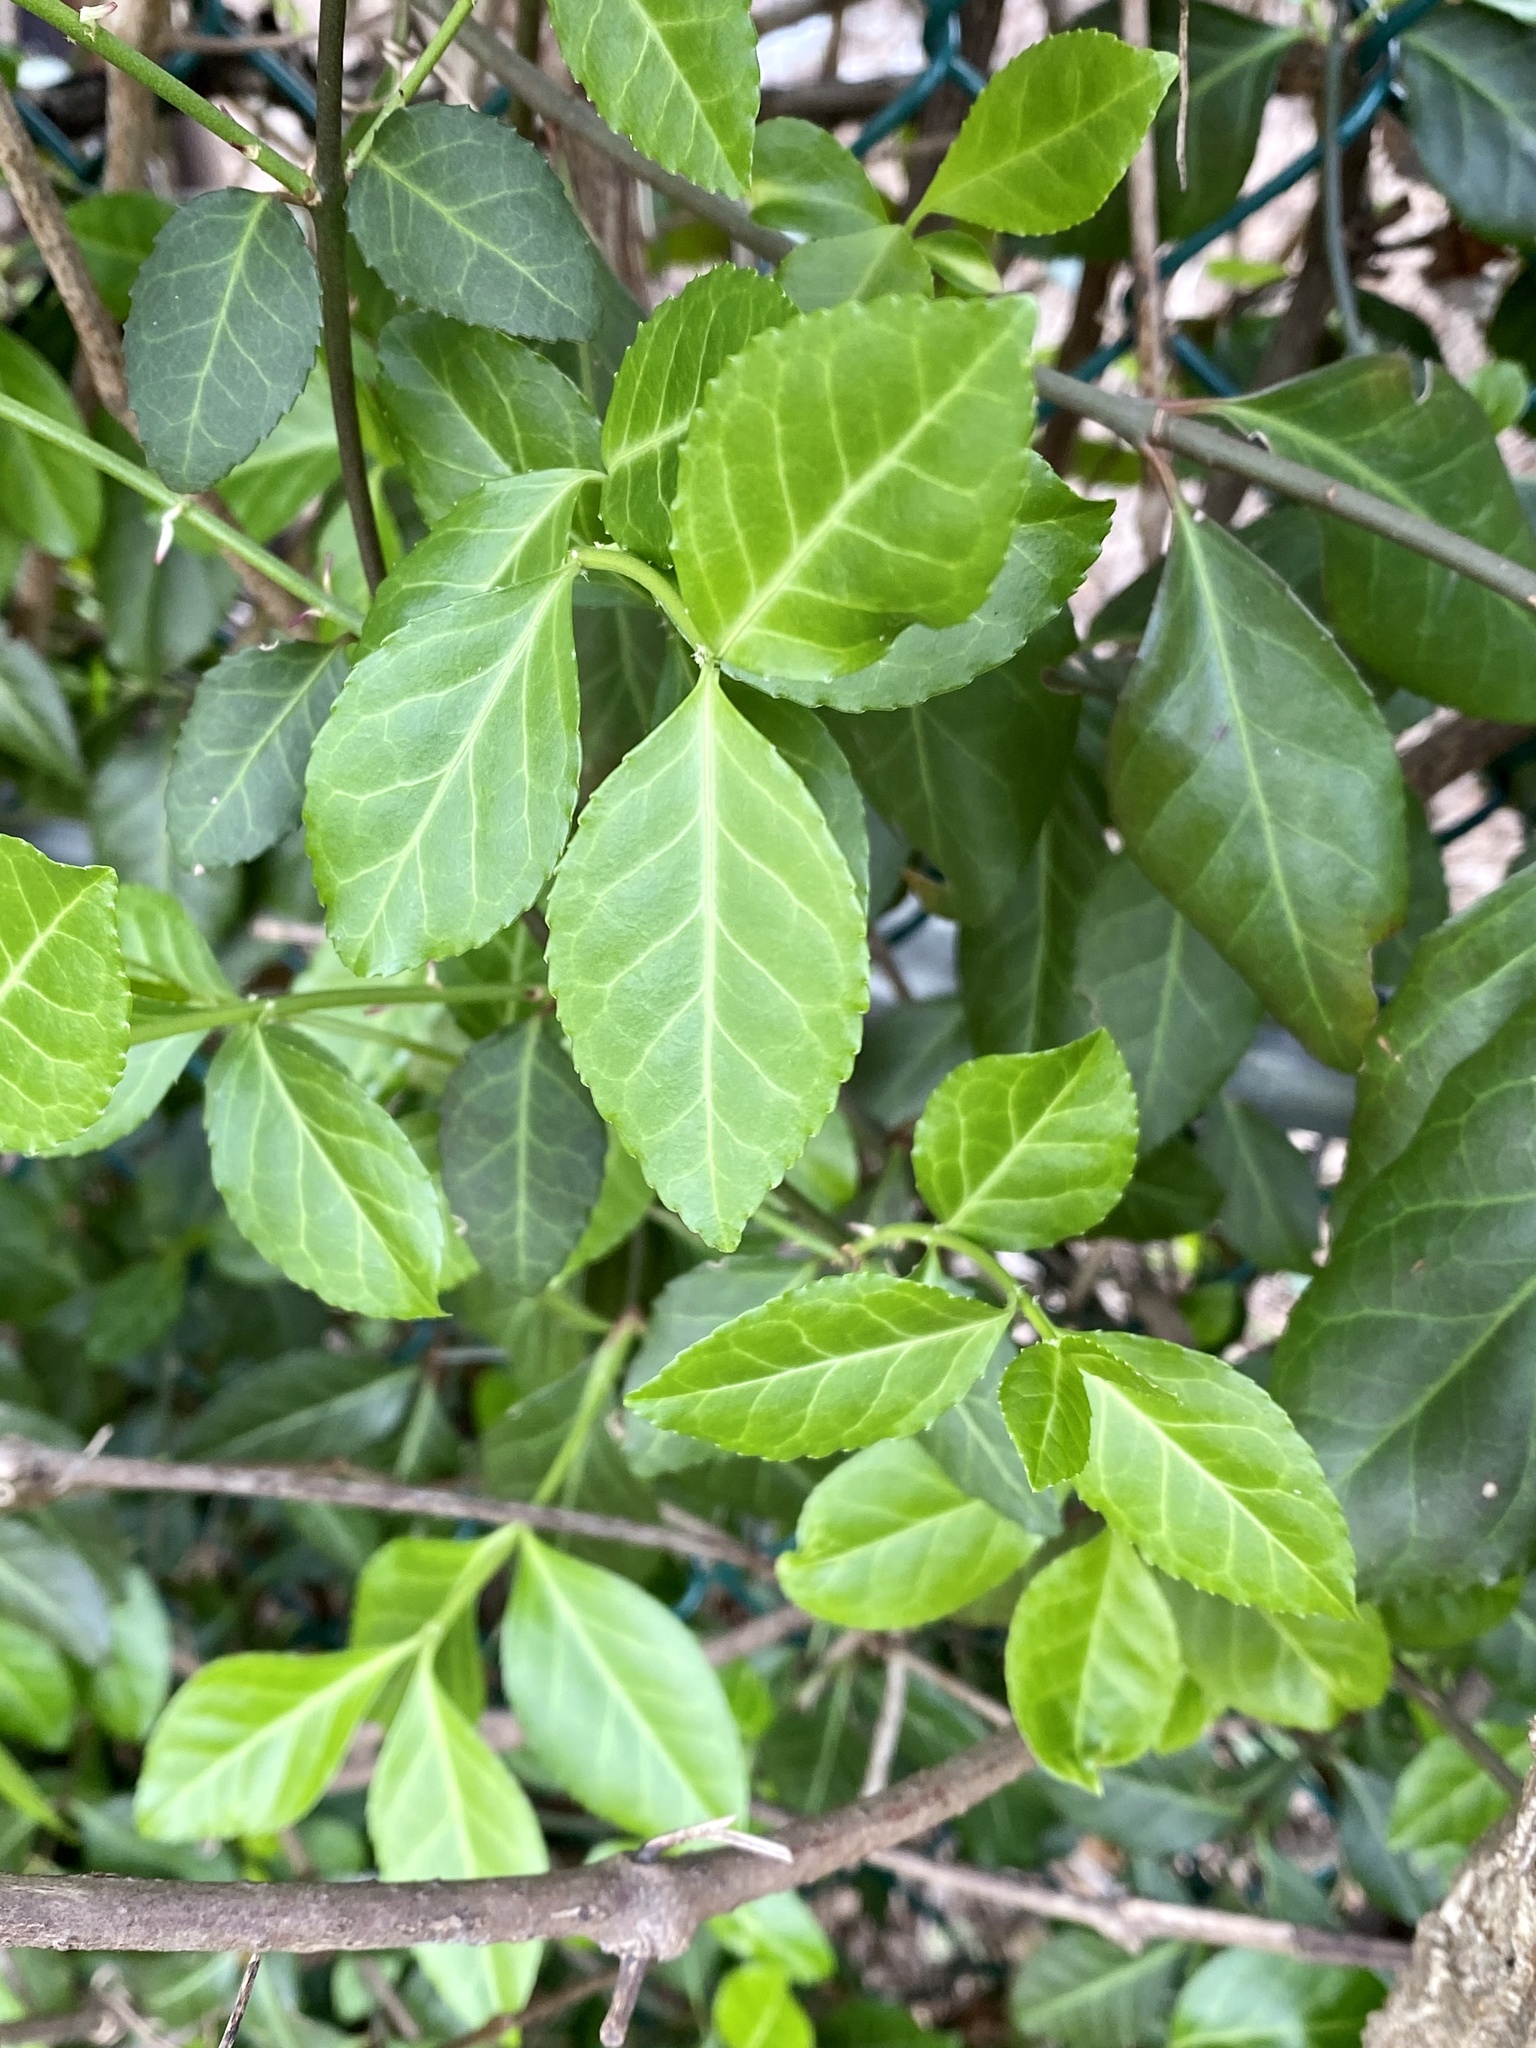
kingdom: Plantae
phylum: Tracheophyta
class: Magnoliopsida
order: Celastrales
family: Celastraceae
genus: Euonymus
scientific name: Euonymus fortunei
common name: Climbing euonymus
